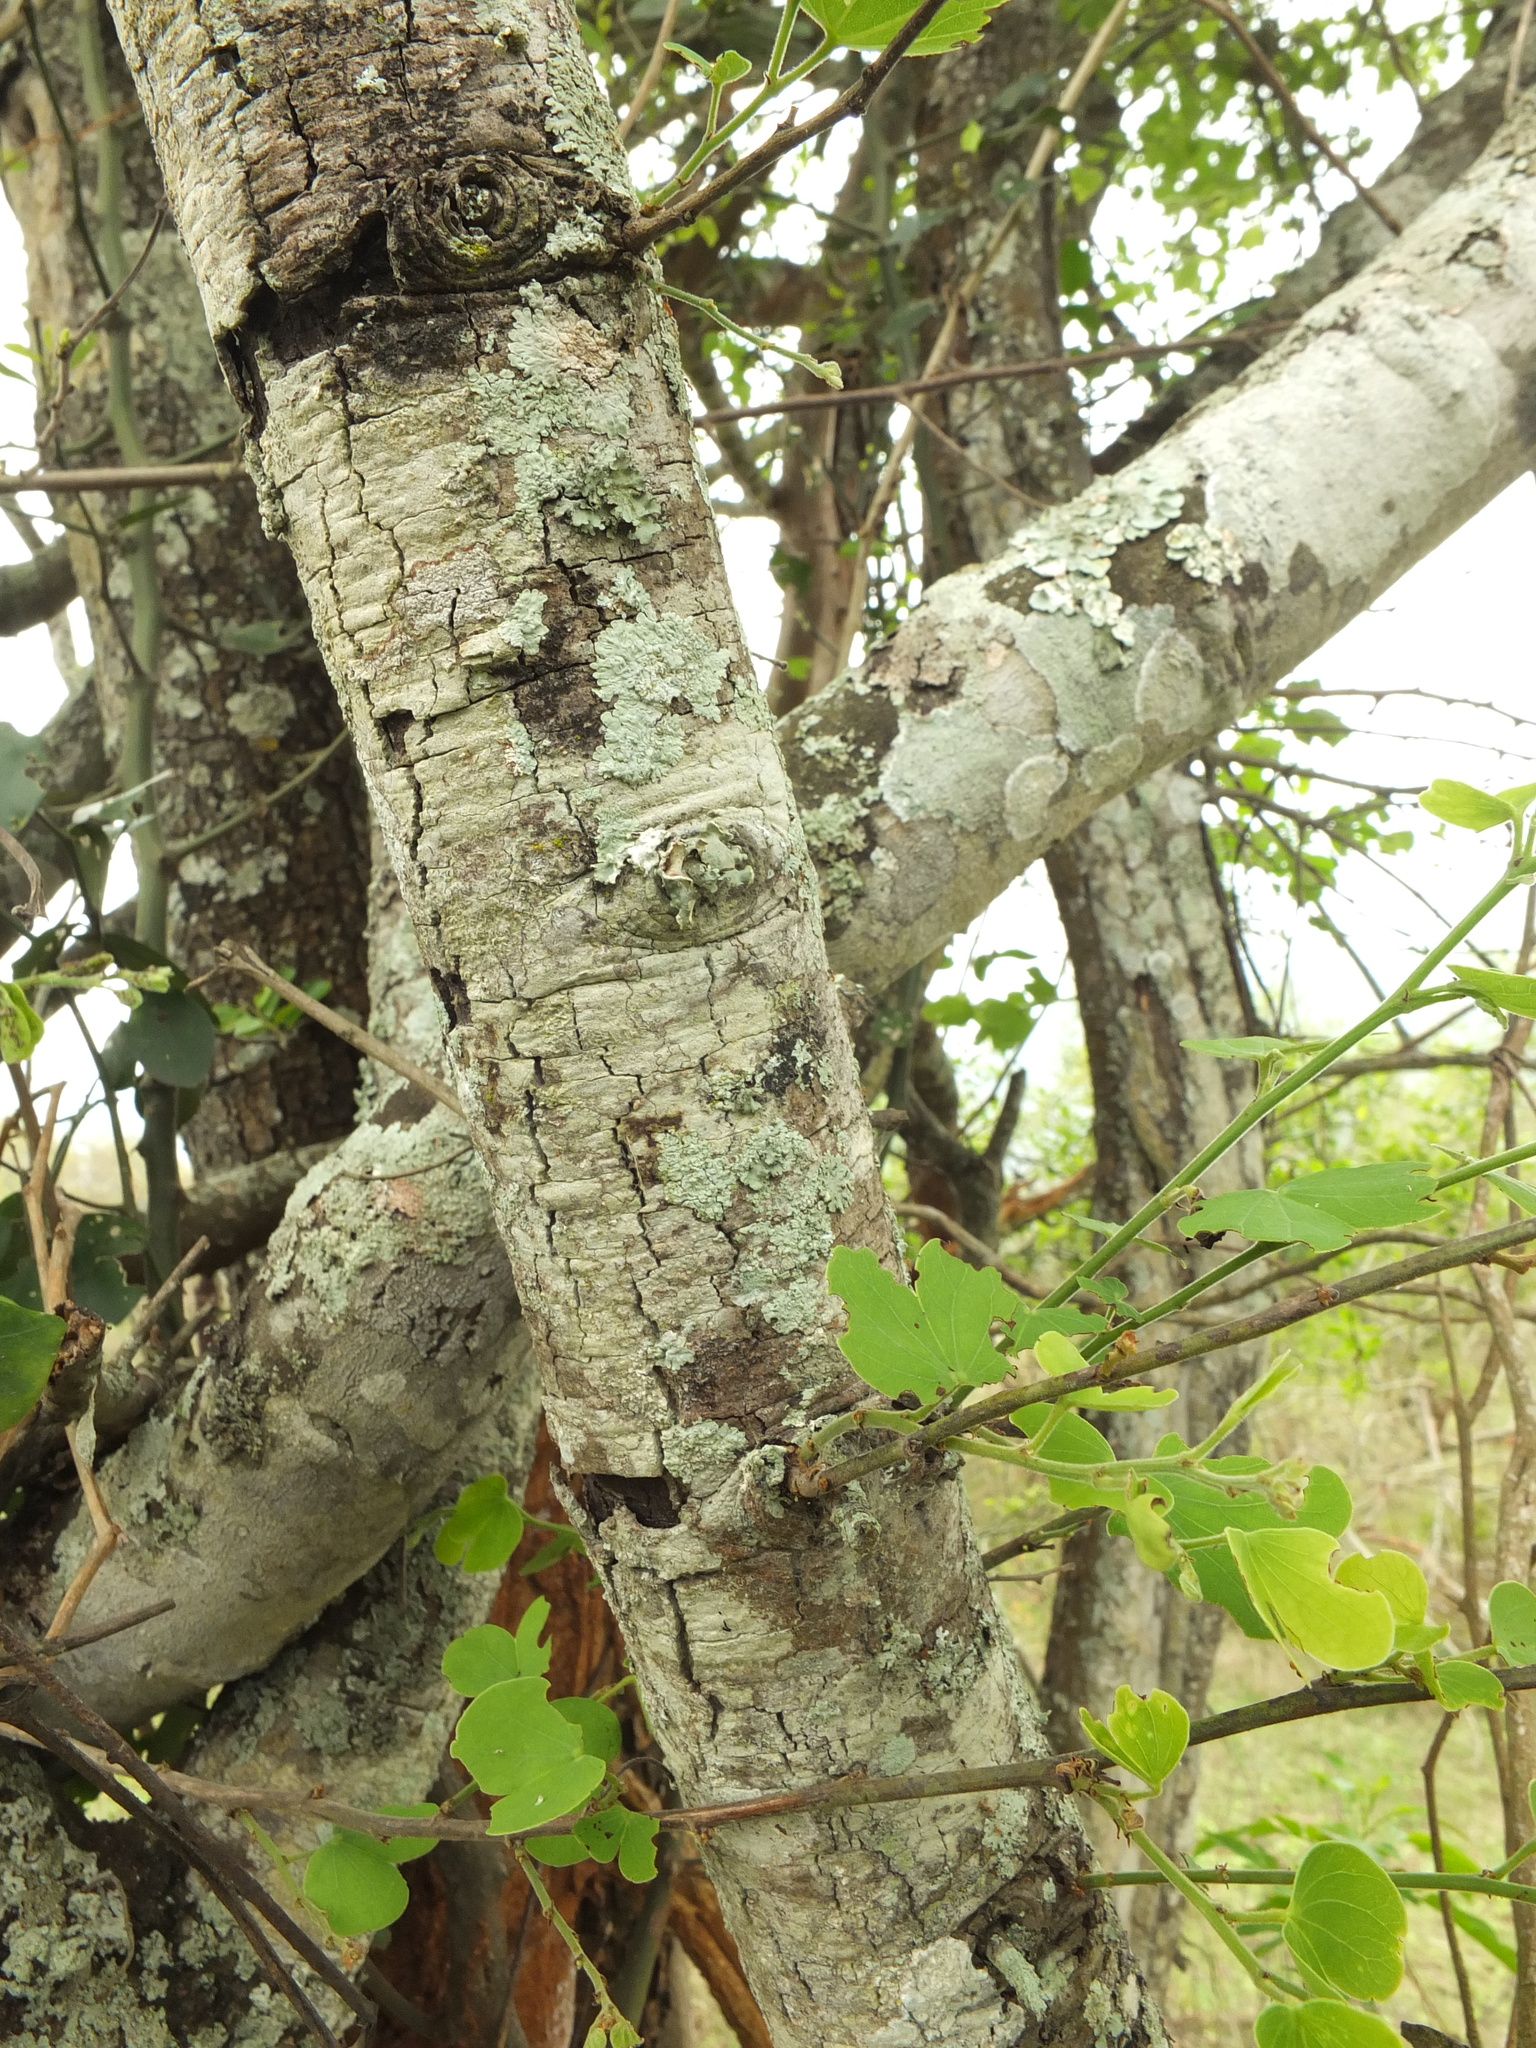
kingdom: Plantae
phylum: Tracheophyta
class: Magnoliopsida
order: Fabales
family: Fabaceae
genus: Bauhinia
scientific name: Bauhinia racemosa
